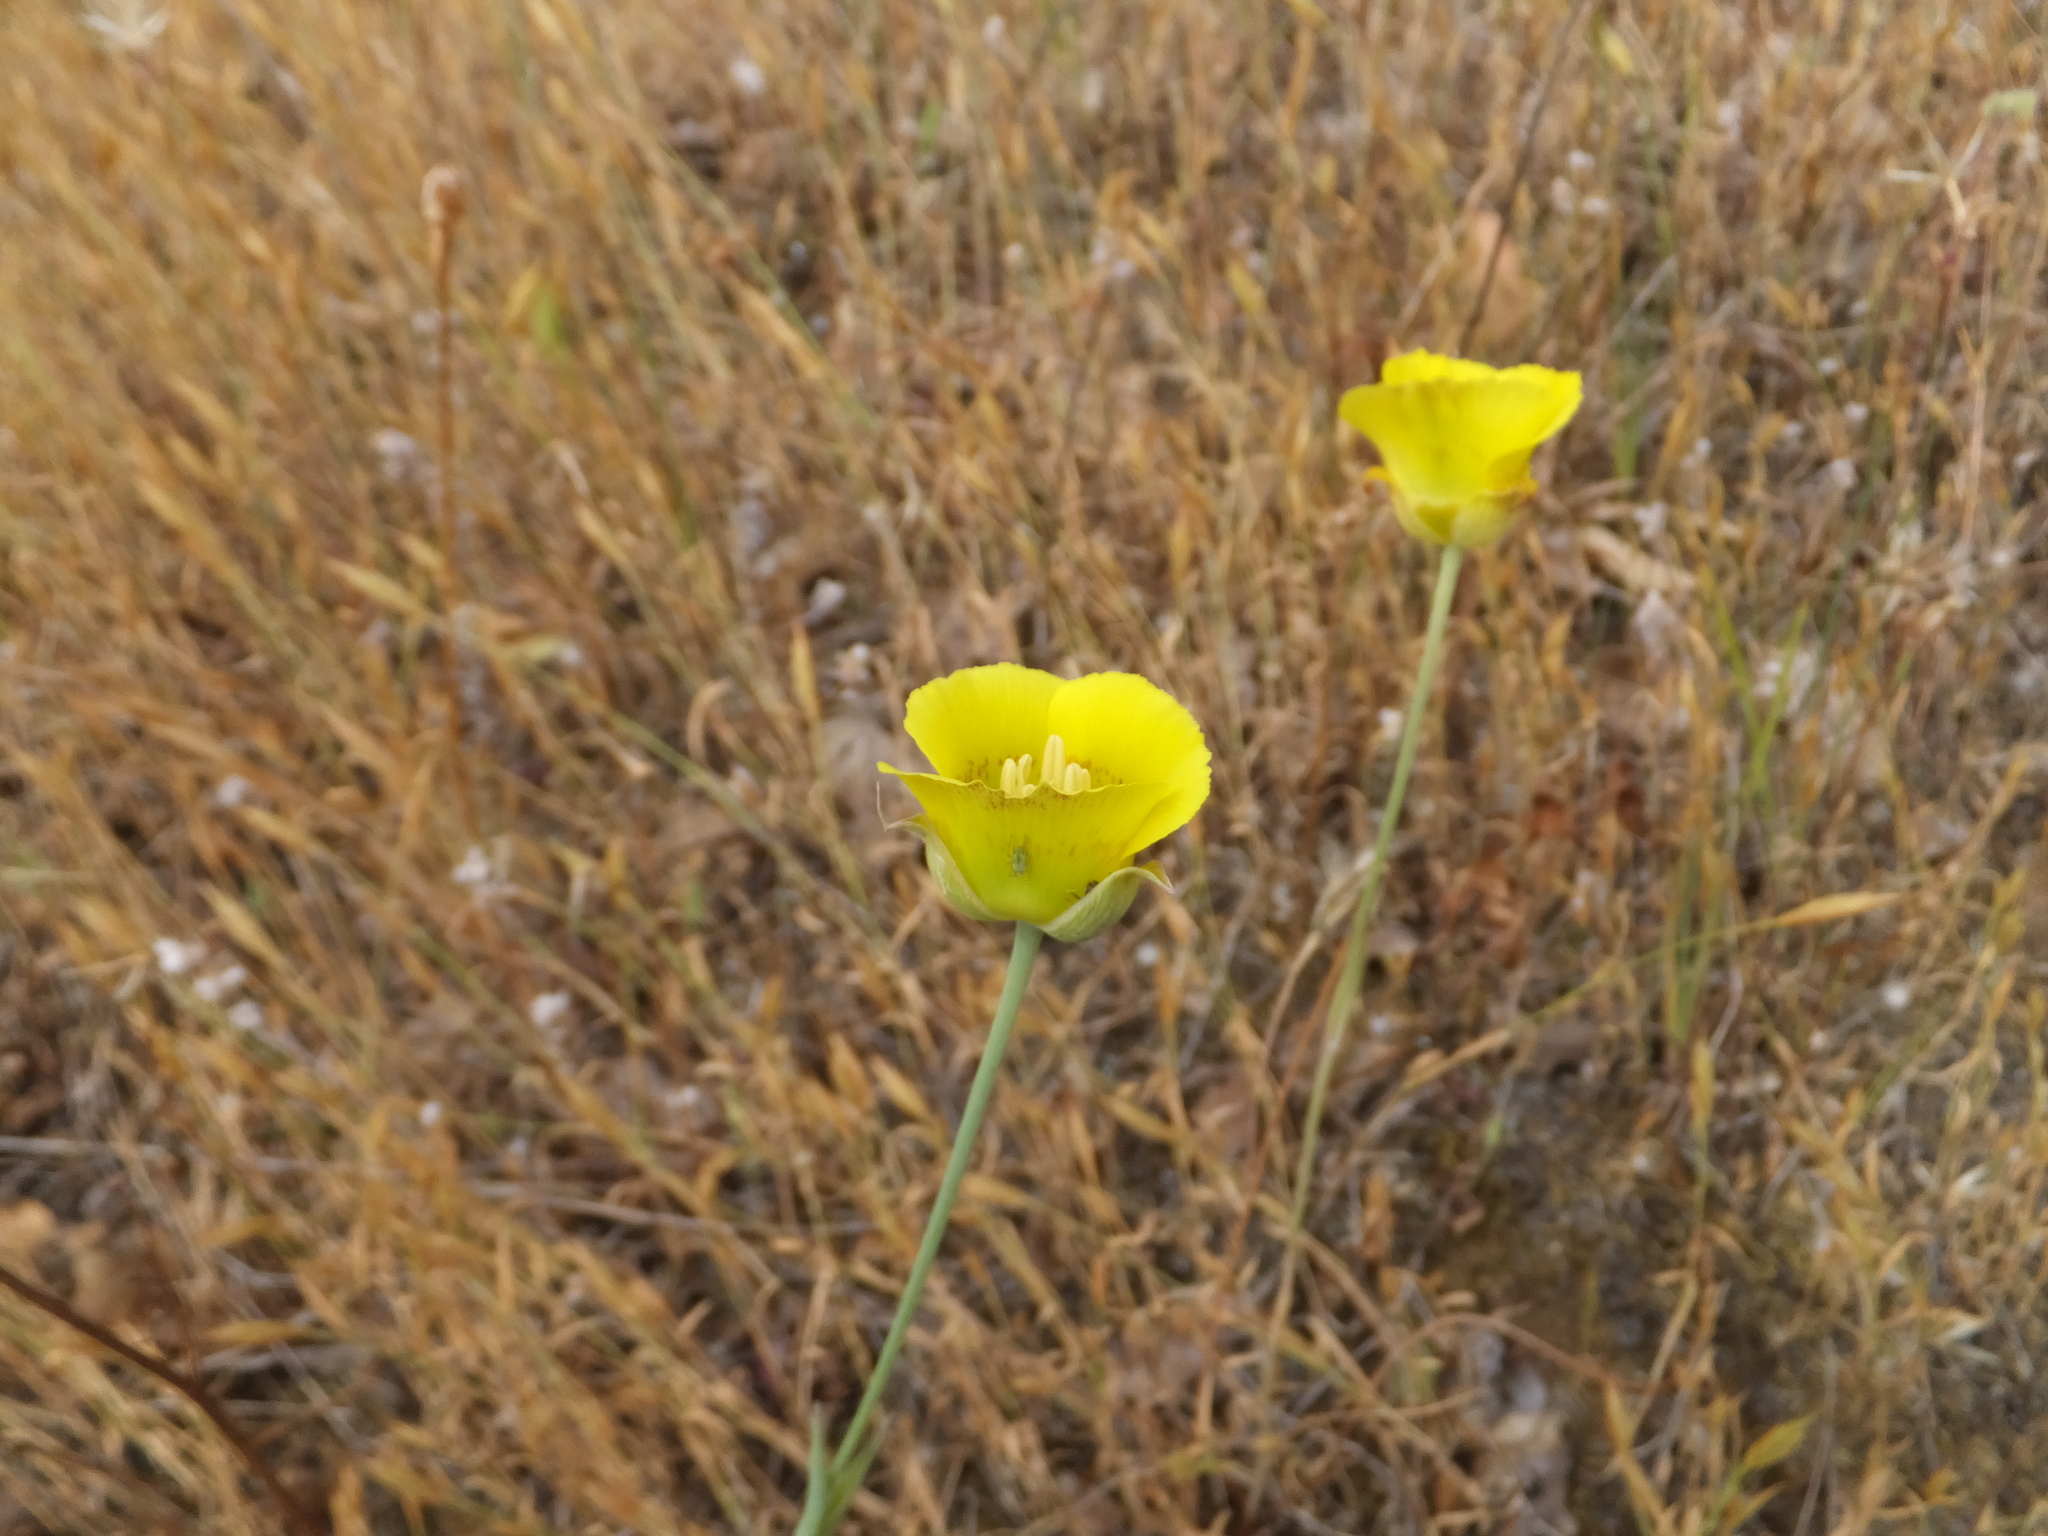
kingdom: Plantae
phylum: Tracheophyta
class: Liliopsida
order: Liliales
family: Liliaceae
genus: Calochortus
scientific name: Calochortus luteus
